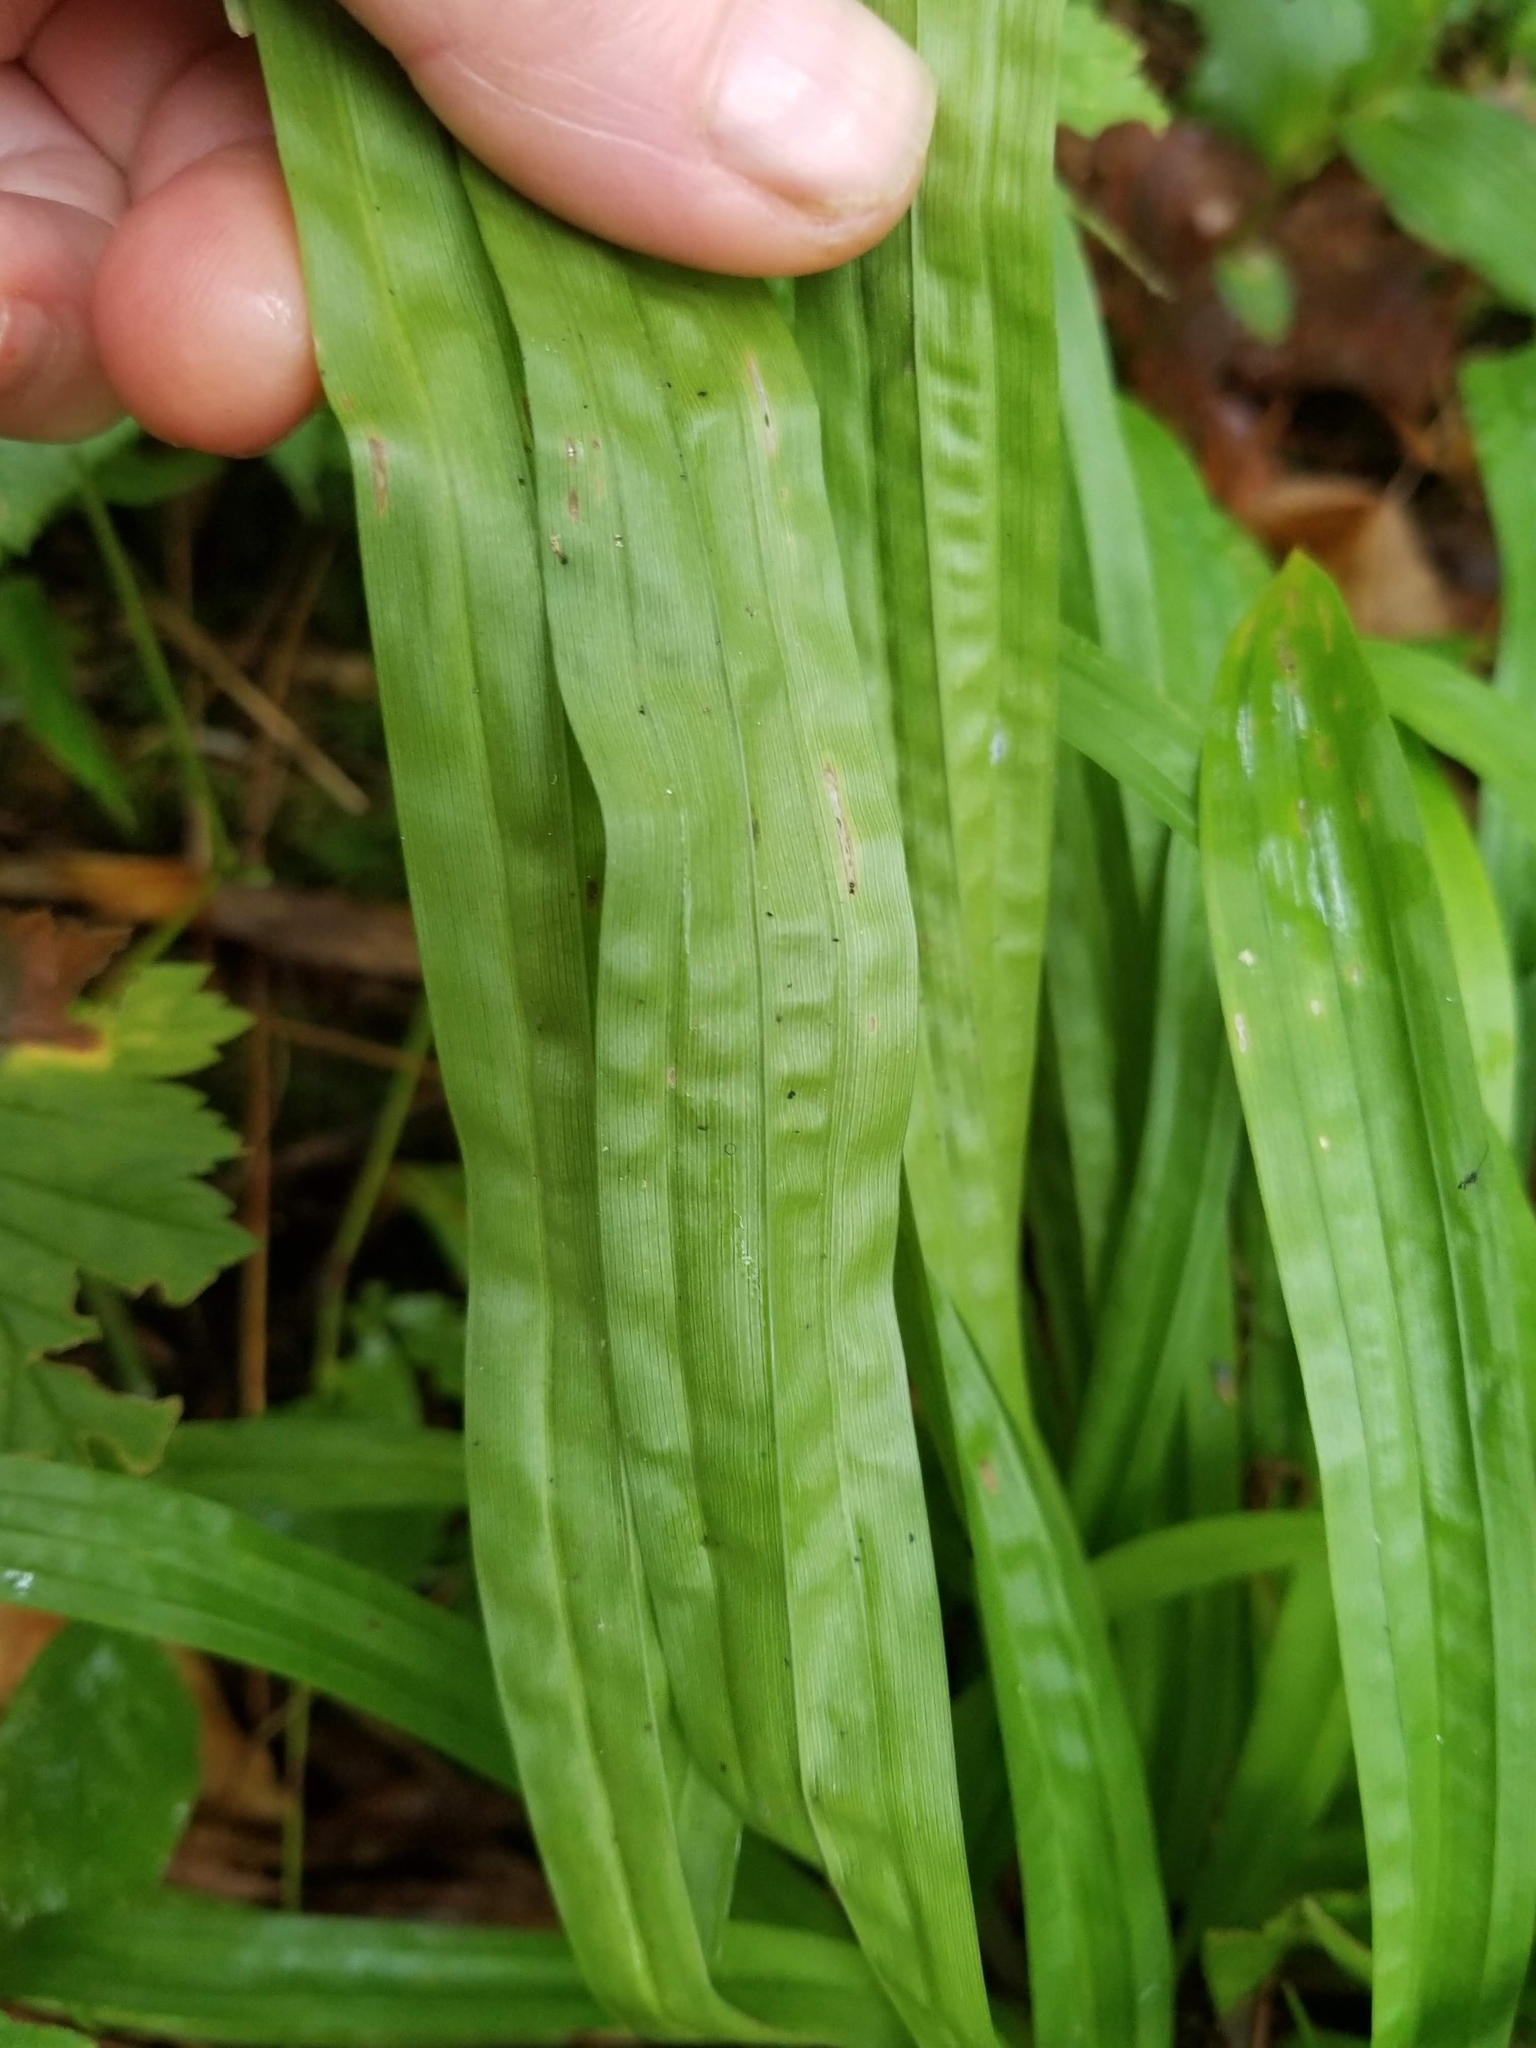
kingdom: Plantae
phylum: Tracheophyta
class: Liliopsida
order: Poales
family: Cyperaceae
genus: Carex
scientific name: Carex plantaginea
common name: Plantain-leaved sedge
